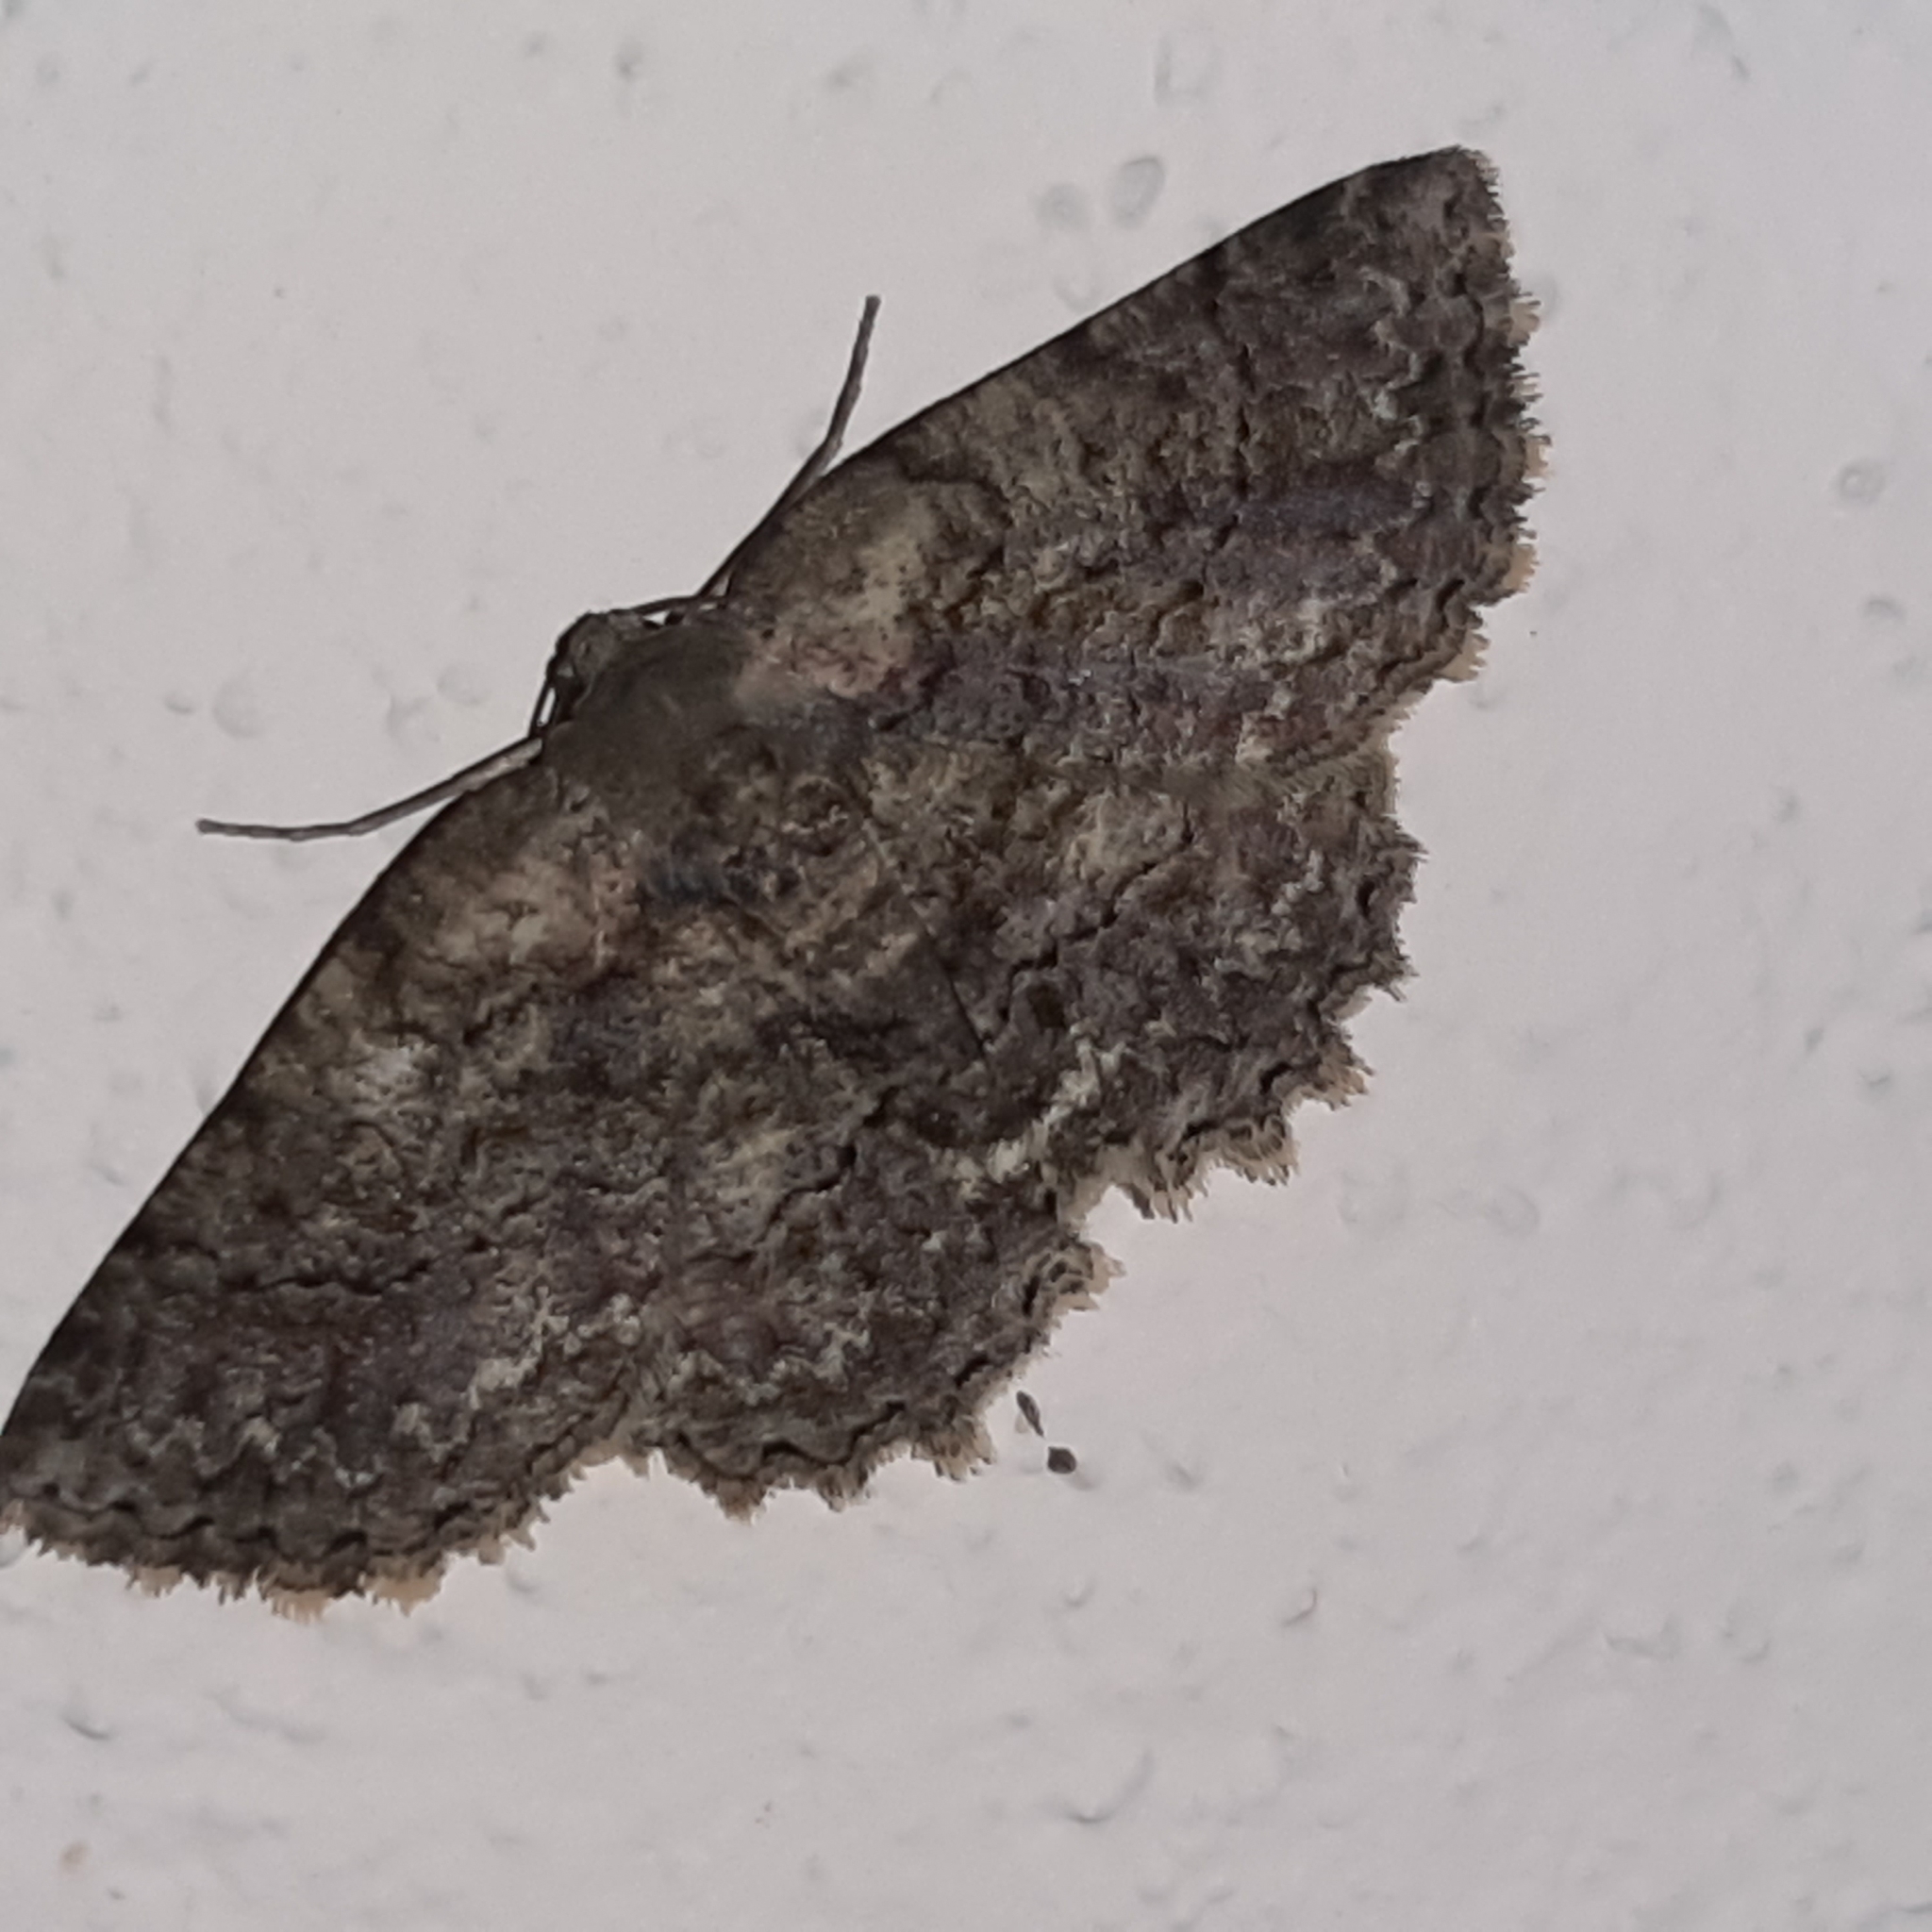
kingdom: Animalia
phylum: Arthropoda
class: Insecta
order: Lepidoptera
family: Geometridae
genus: Bryoptera
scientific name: Bryoptera subbrunnea
